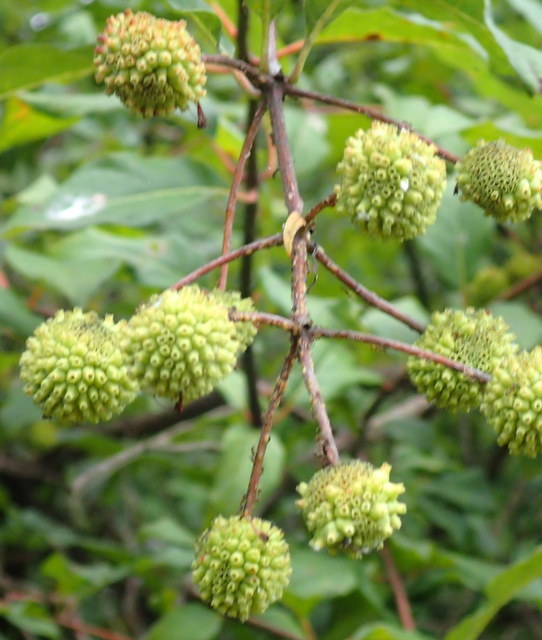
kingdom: Plantae
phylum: Tracheophyta
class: Magnoliopsida
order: Gentianales
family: Rubiaceae
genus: Cephalanthus
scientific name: Cephalanthus occidentalis
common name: Button-willow
